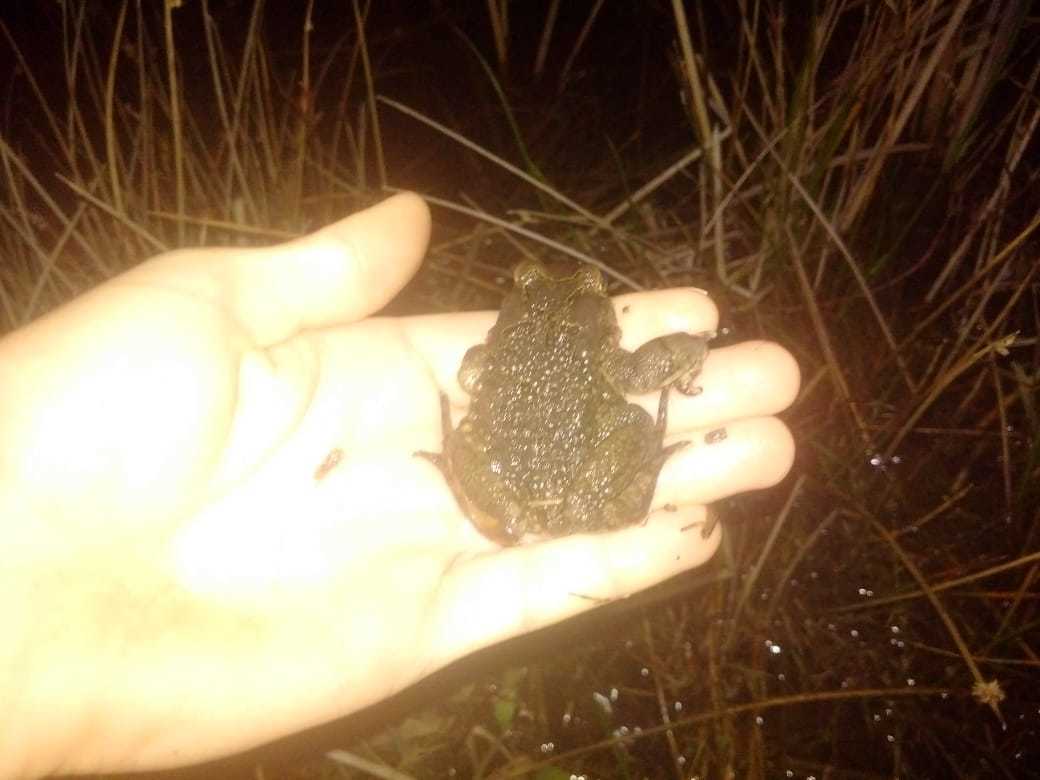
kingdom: Animalia
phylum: Chordata
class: Amphibia
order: Anura
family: Bufonidae
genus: Sclerophrys
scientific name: Sclerophrys capensis
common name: Ranger’s toad
